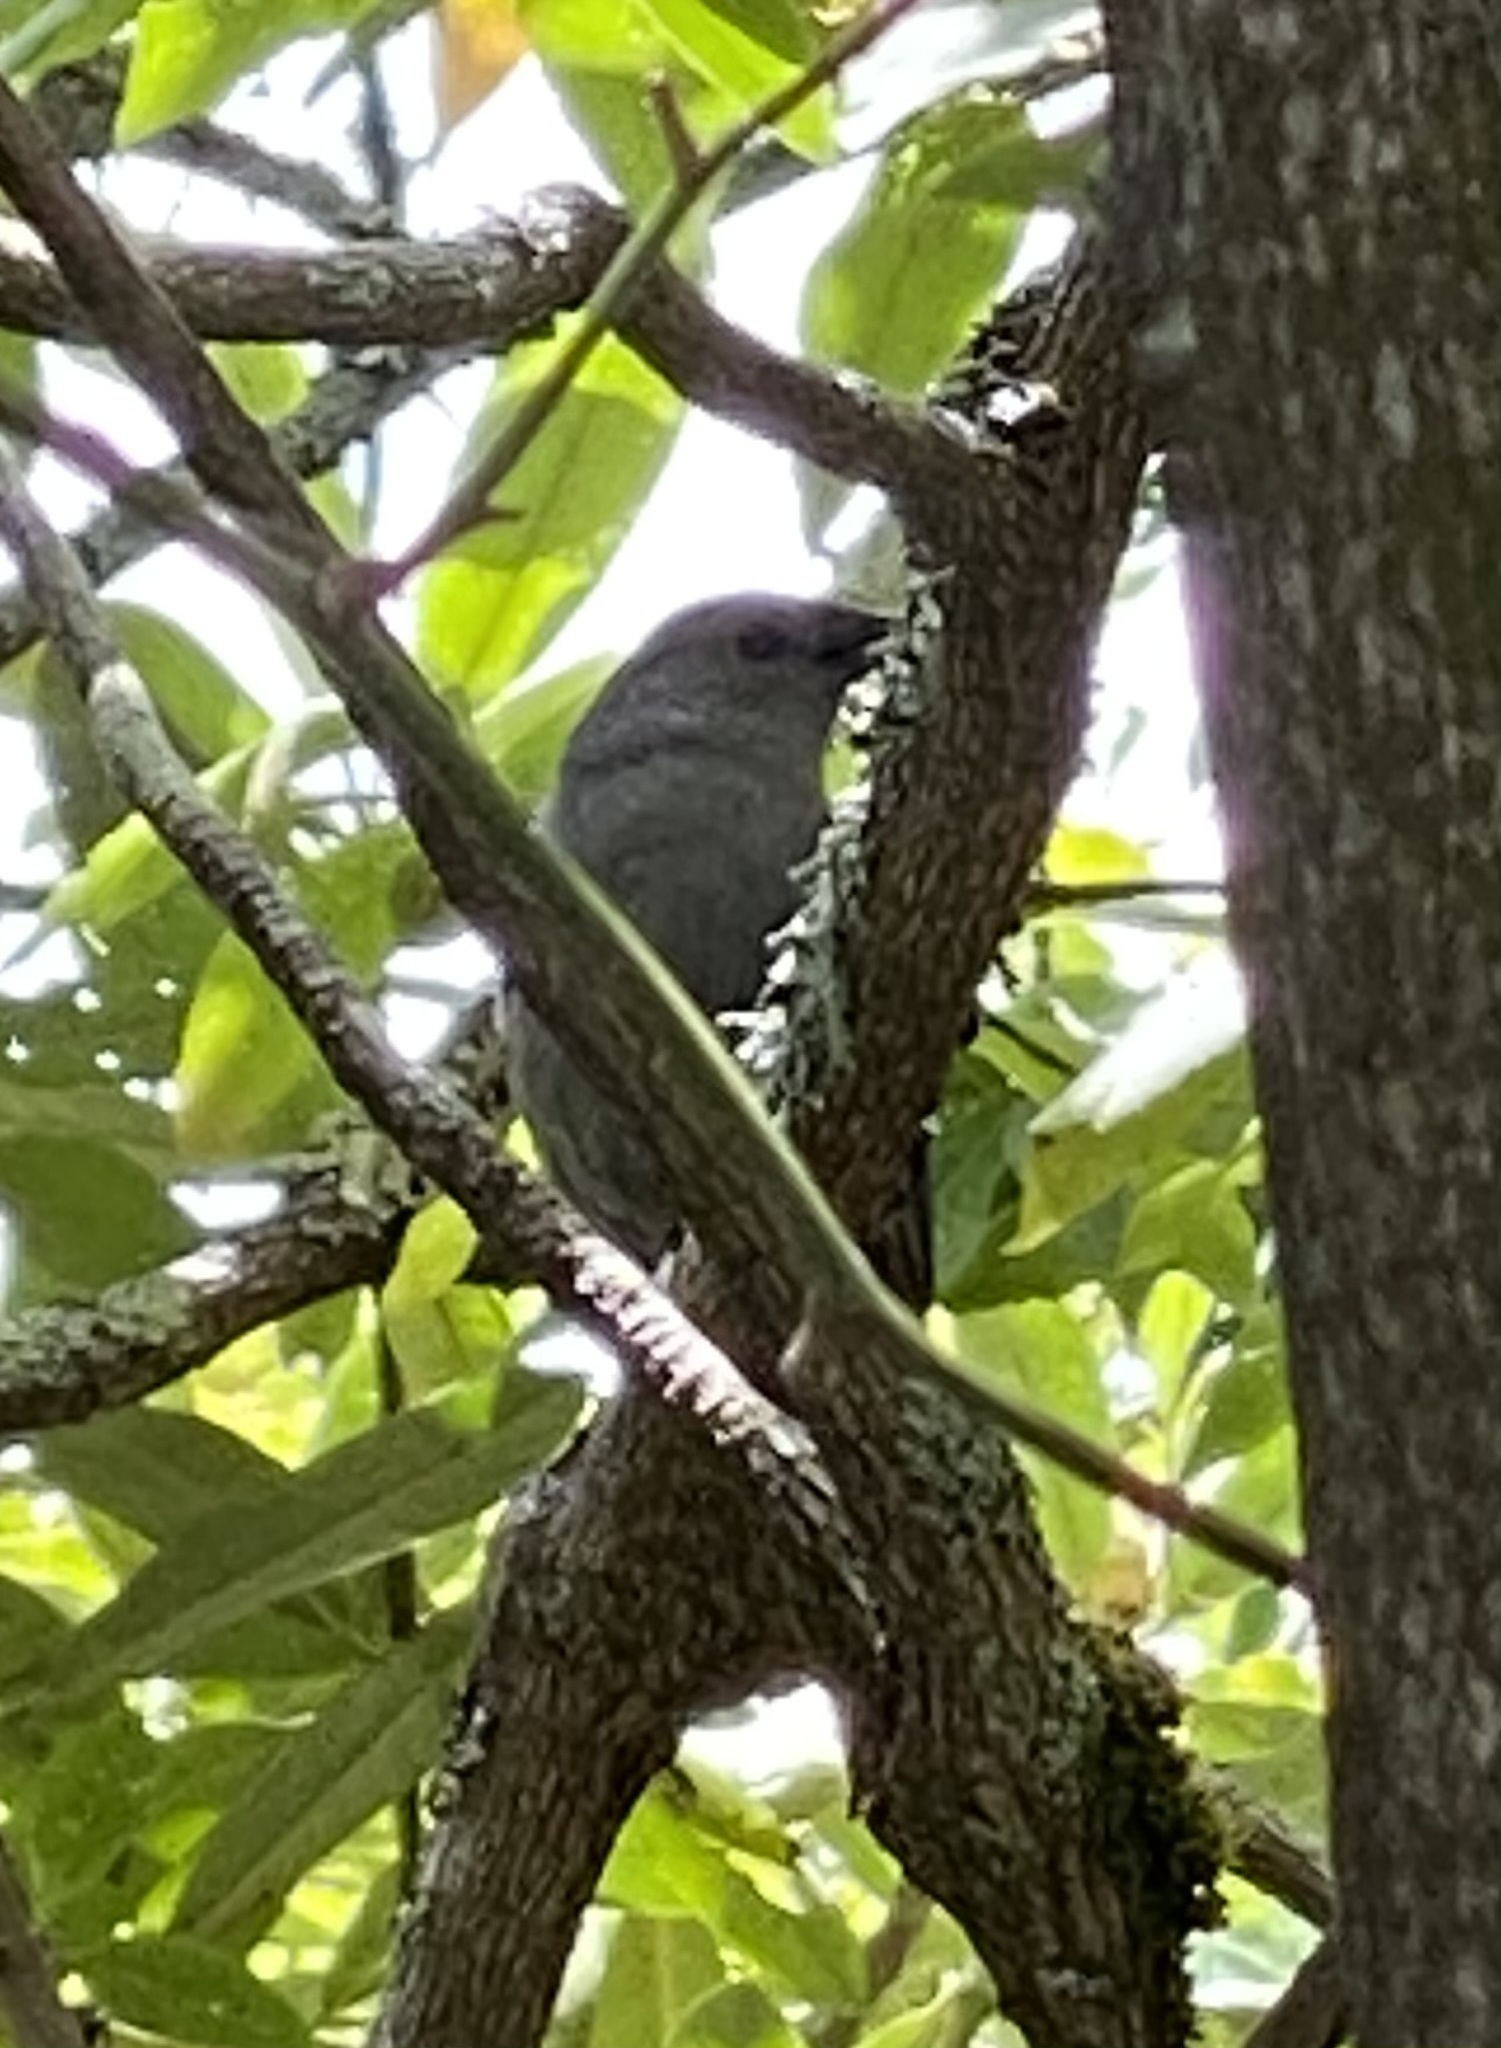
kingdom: Animalia
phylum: Chordata
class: Aves
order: Passeriformes
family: Icteridae
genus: Molothrus
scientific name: Molothrus ater
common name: Brown-headed cowbird
